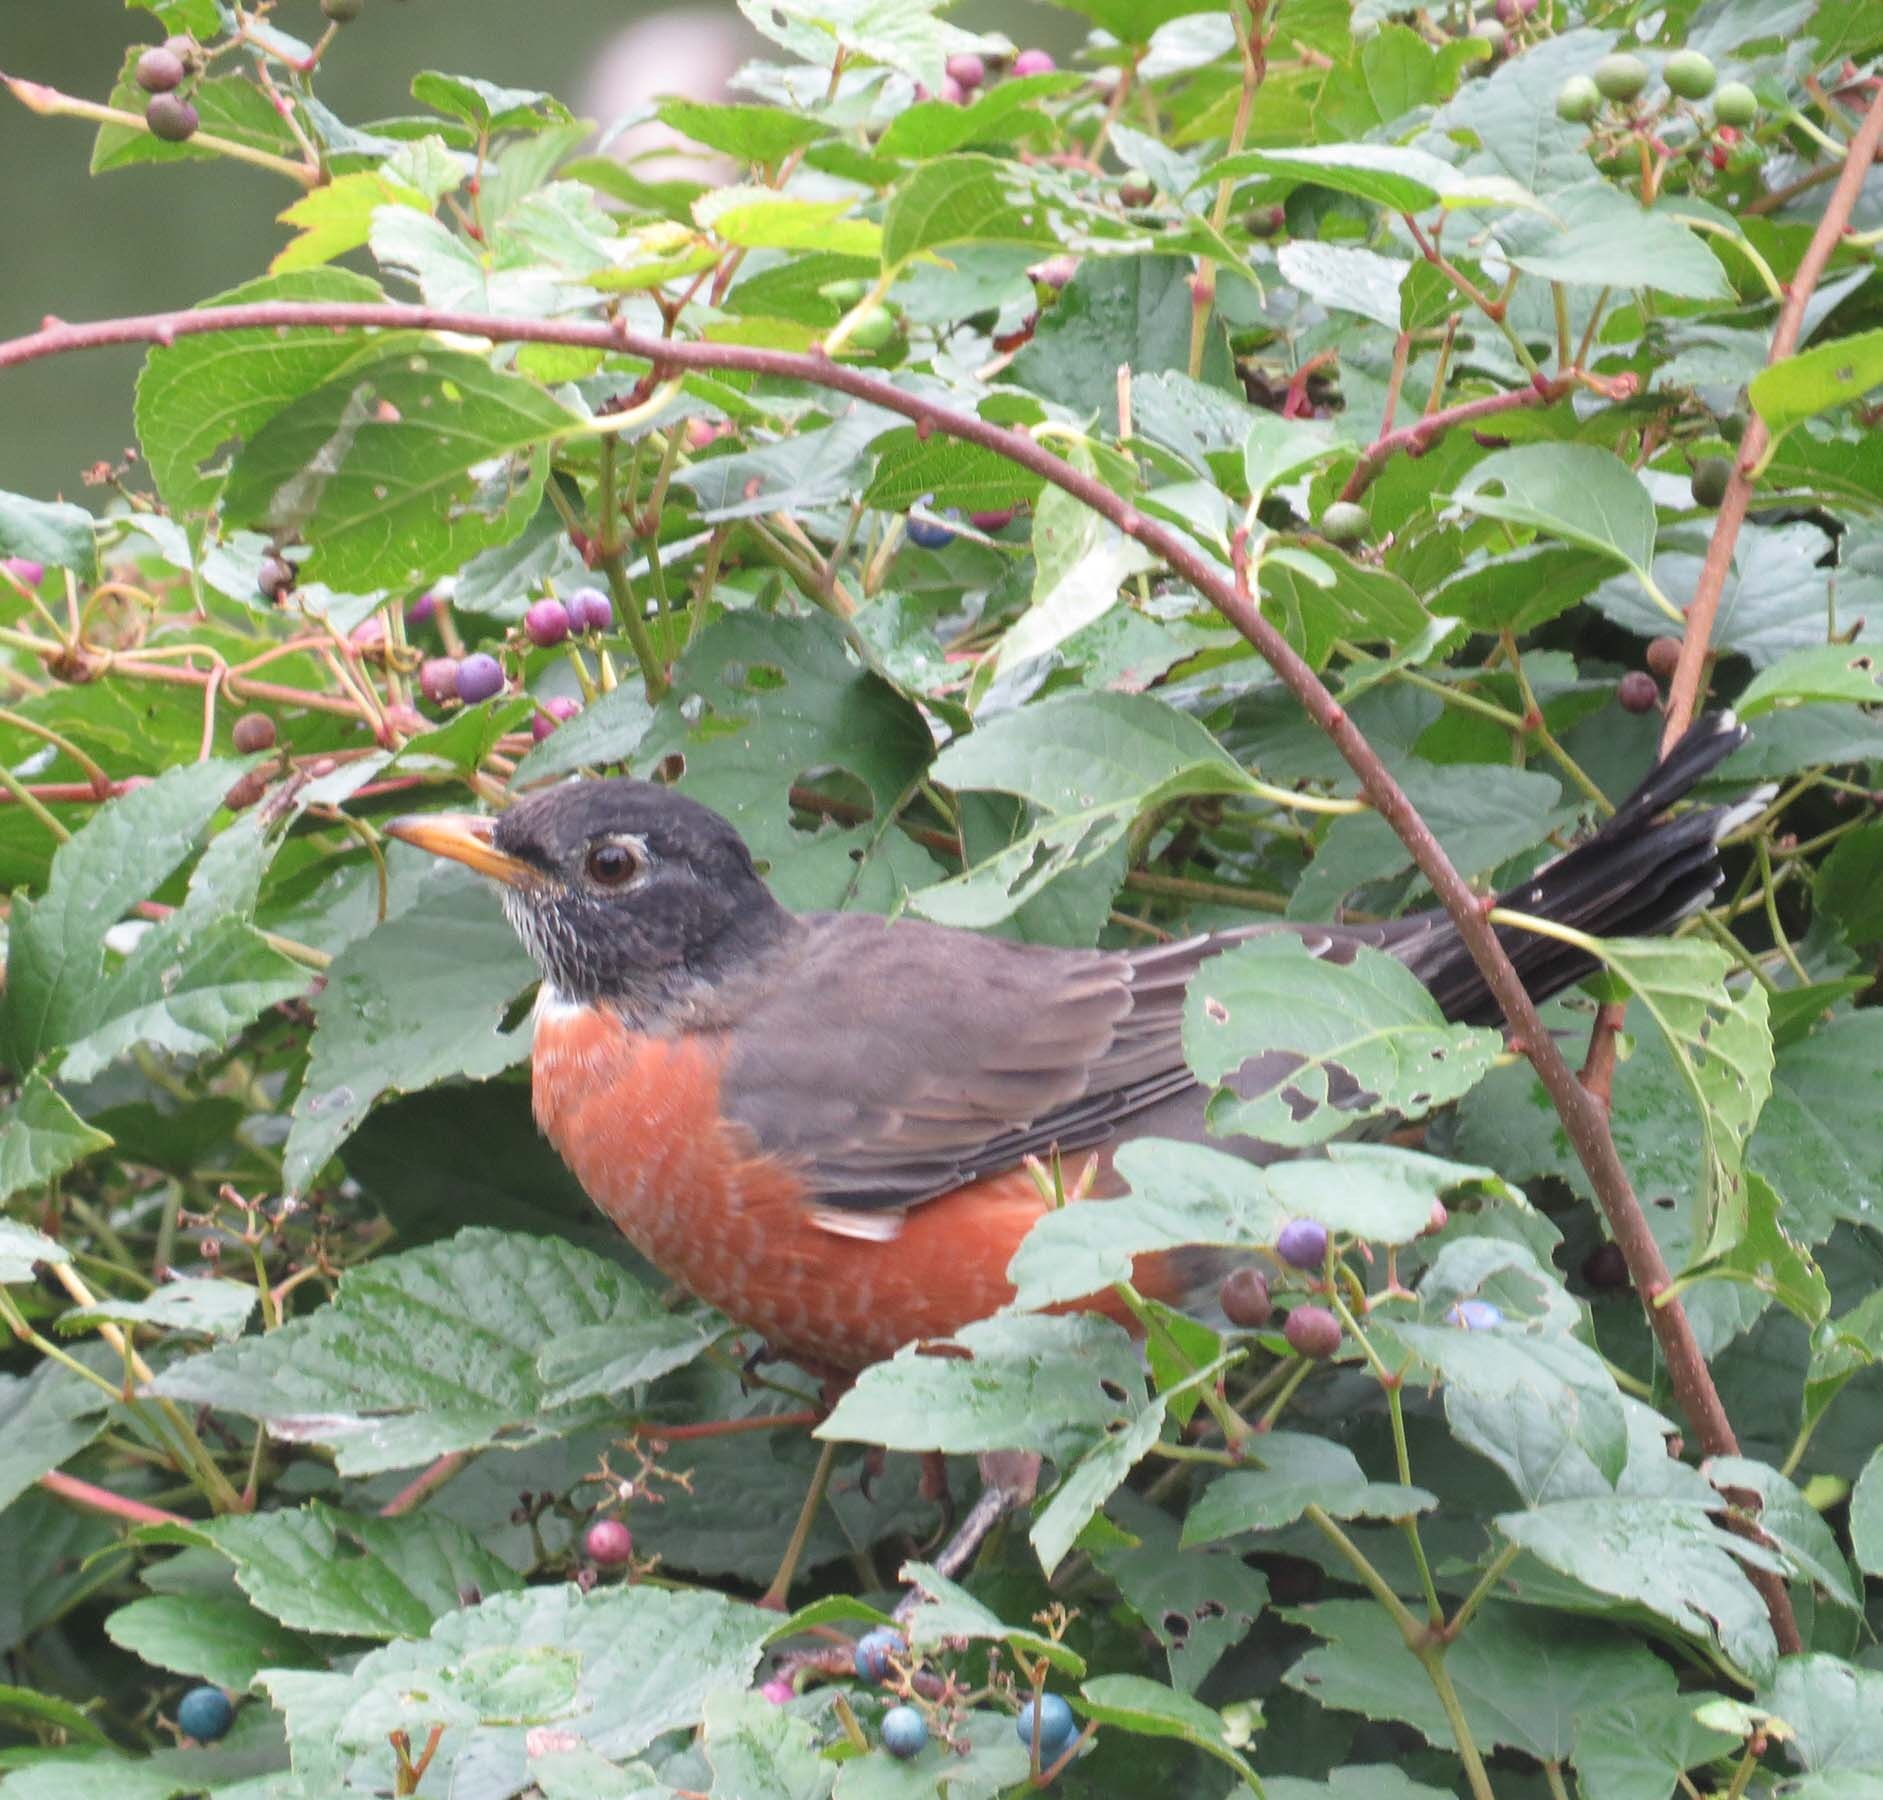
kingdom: Animalia
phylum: Chordata
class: Aves
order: Passeriformes
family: Turdidae
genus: Turdus
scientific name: Turdus migratorius
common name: American robin
